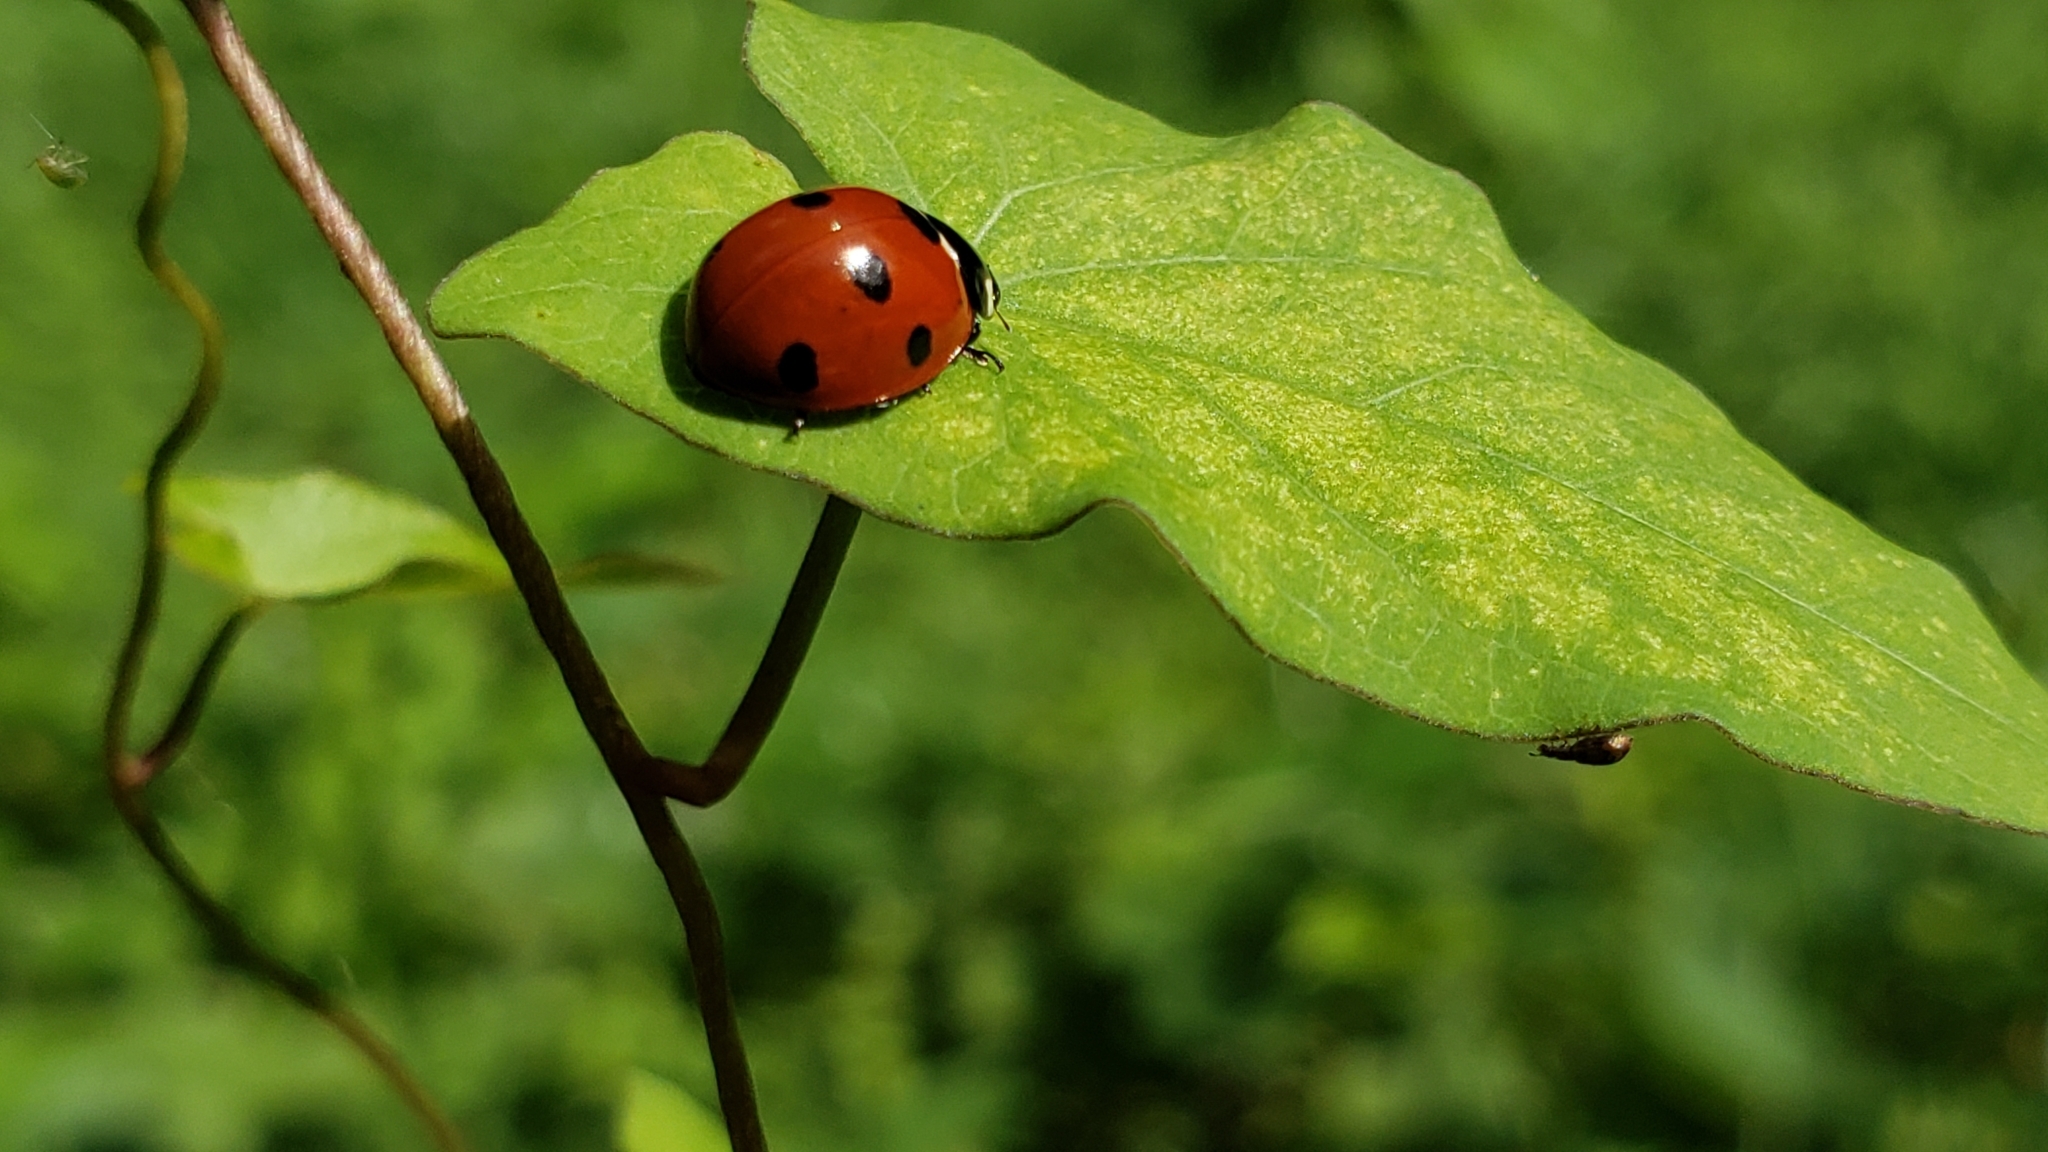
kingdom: Animalia
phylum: Arthropoda
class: Insecta
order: Coleoptera
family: Coccinellidae
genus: Coccinella
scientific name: Coccinella septempunctata
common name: Sevenspotted lady beetle
